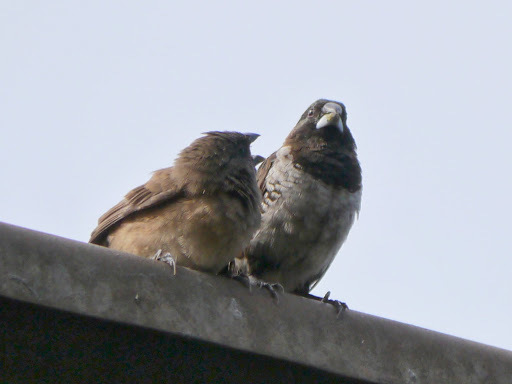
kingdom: Animalia
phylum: Chordata
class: Aves
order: Passeriformes
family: Estrildidae
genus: Lonchura
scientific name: Lonchura cucullata
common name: Bronze mannikin
